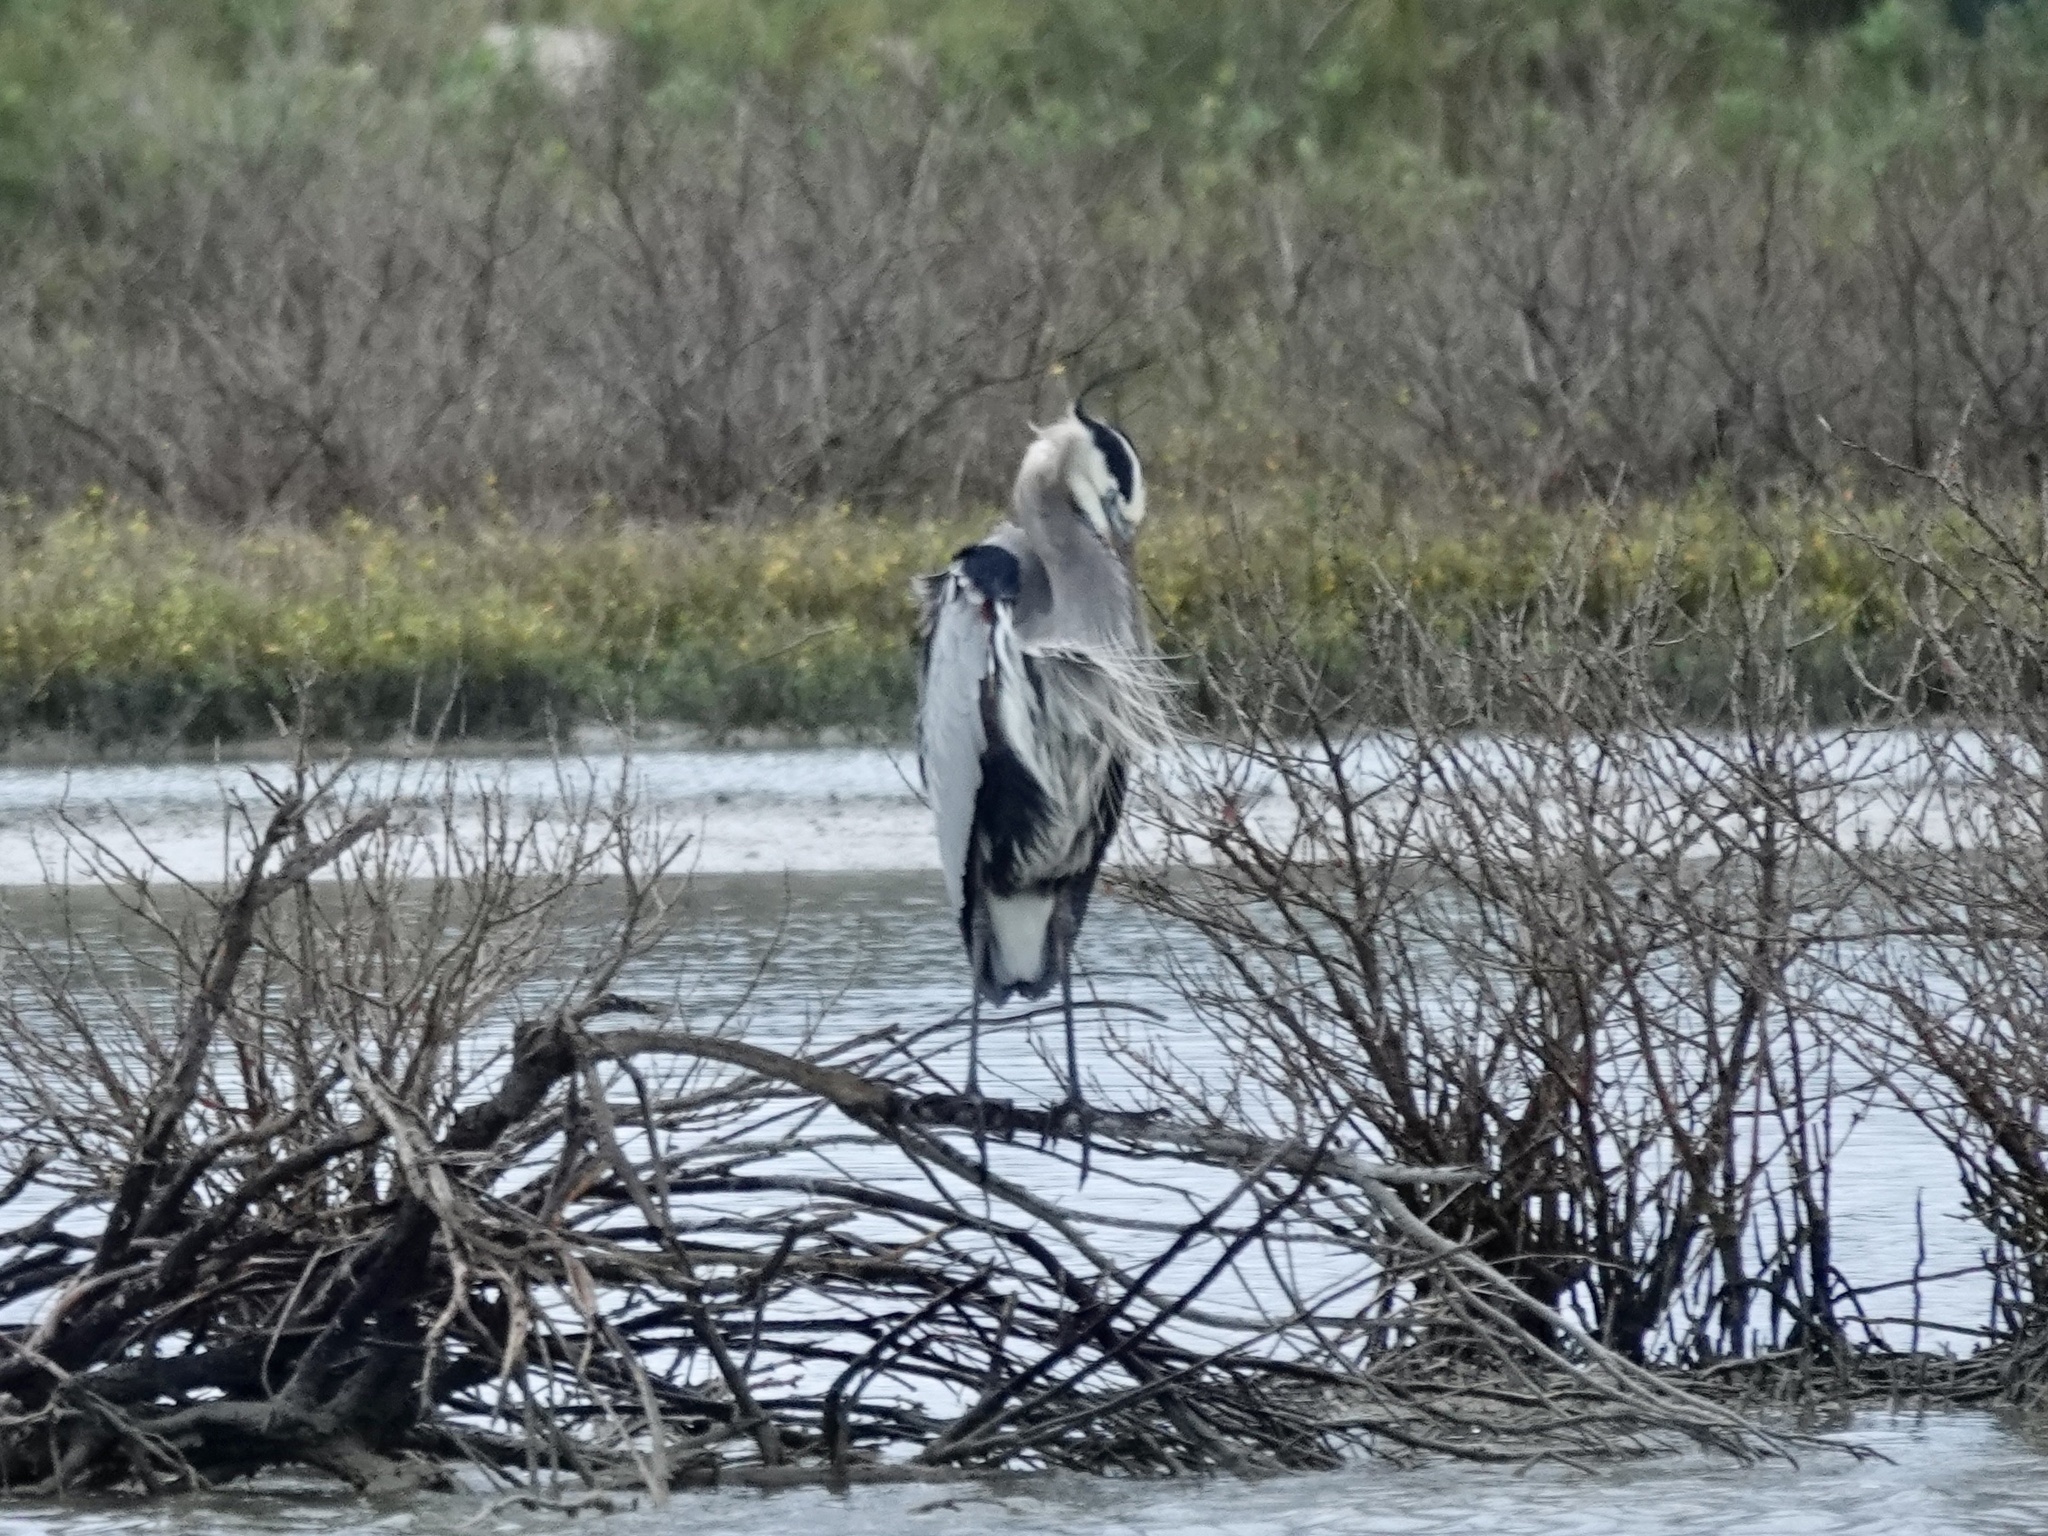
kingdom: Animalia
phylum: Chordata
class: Aves
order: Pelecaniformes
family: Ardeidae
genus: Ardea
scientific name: Ardea herodias
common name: Great blue heron
